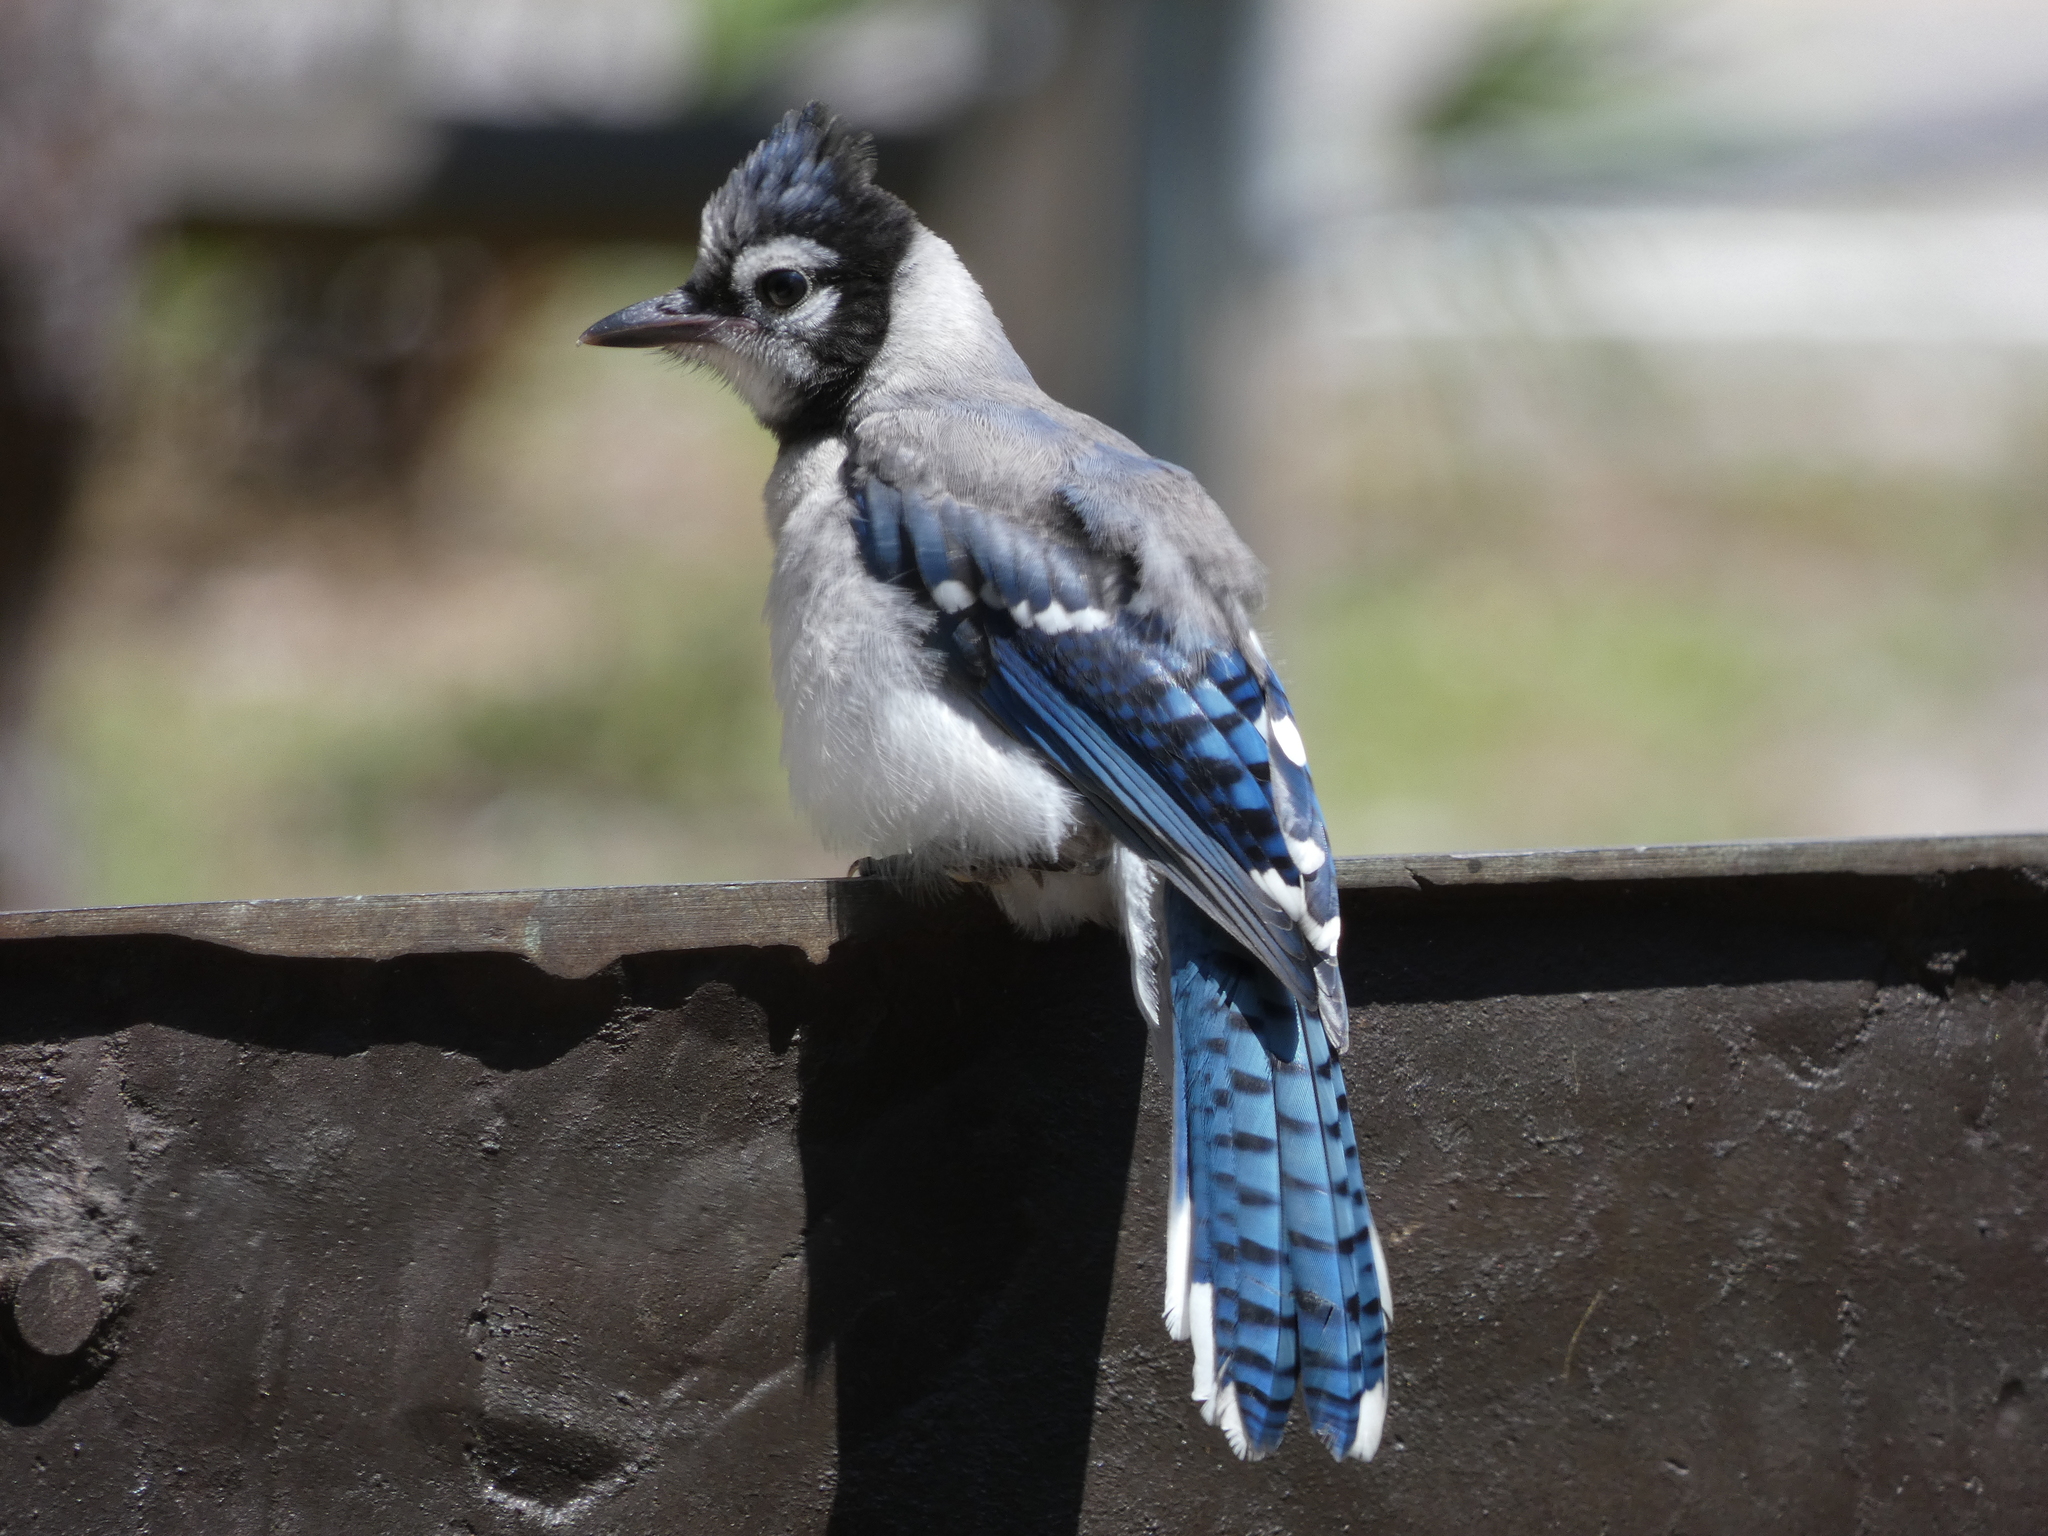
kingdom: Animalia
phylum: Chordata
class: Aves
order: Passeriformes
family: Corvidae
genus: Cyanocitta
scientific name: Cyanocitta cristata
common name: Blue jay
